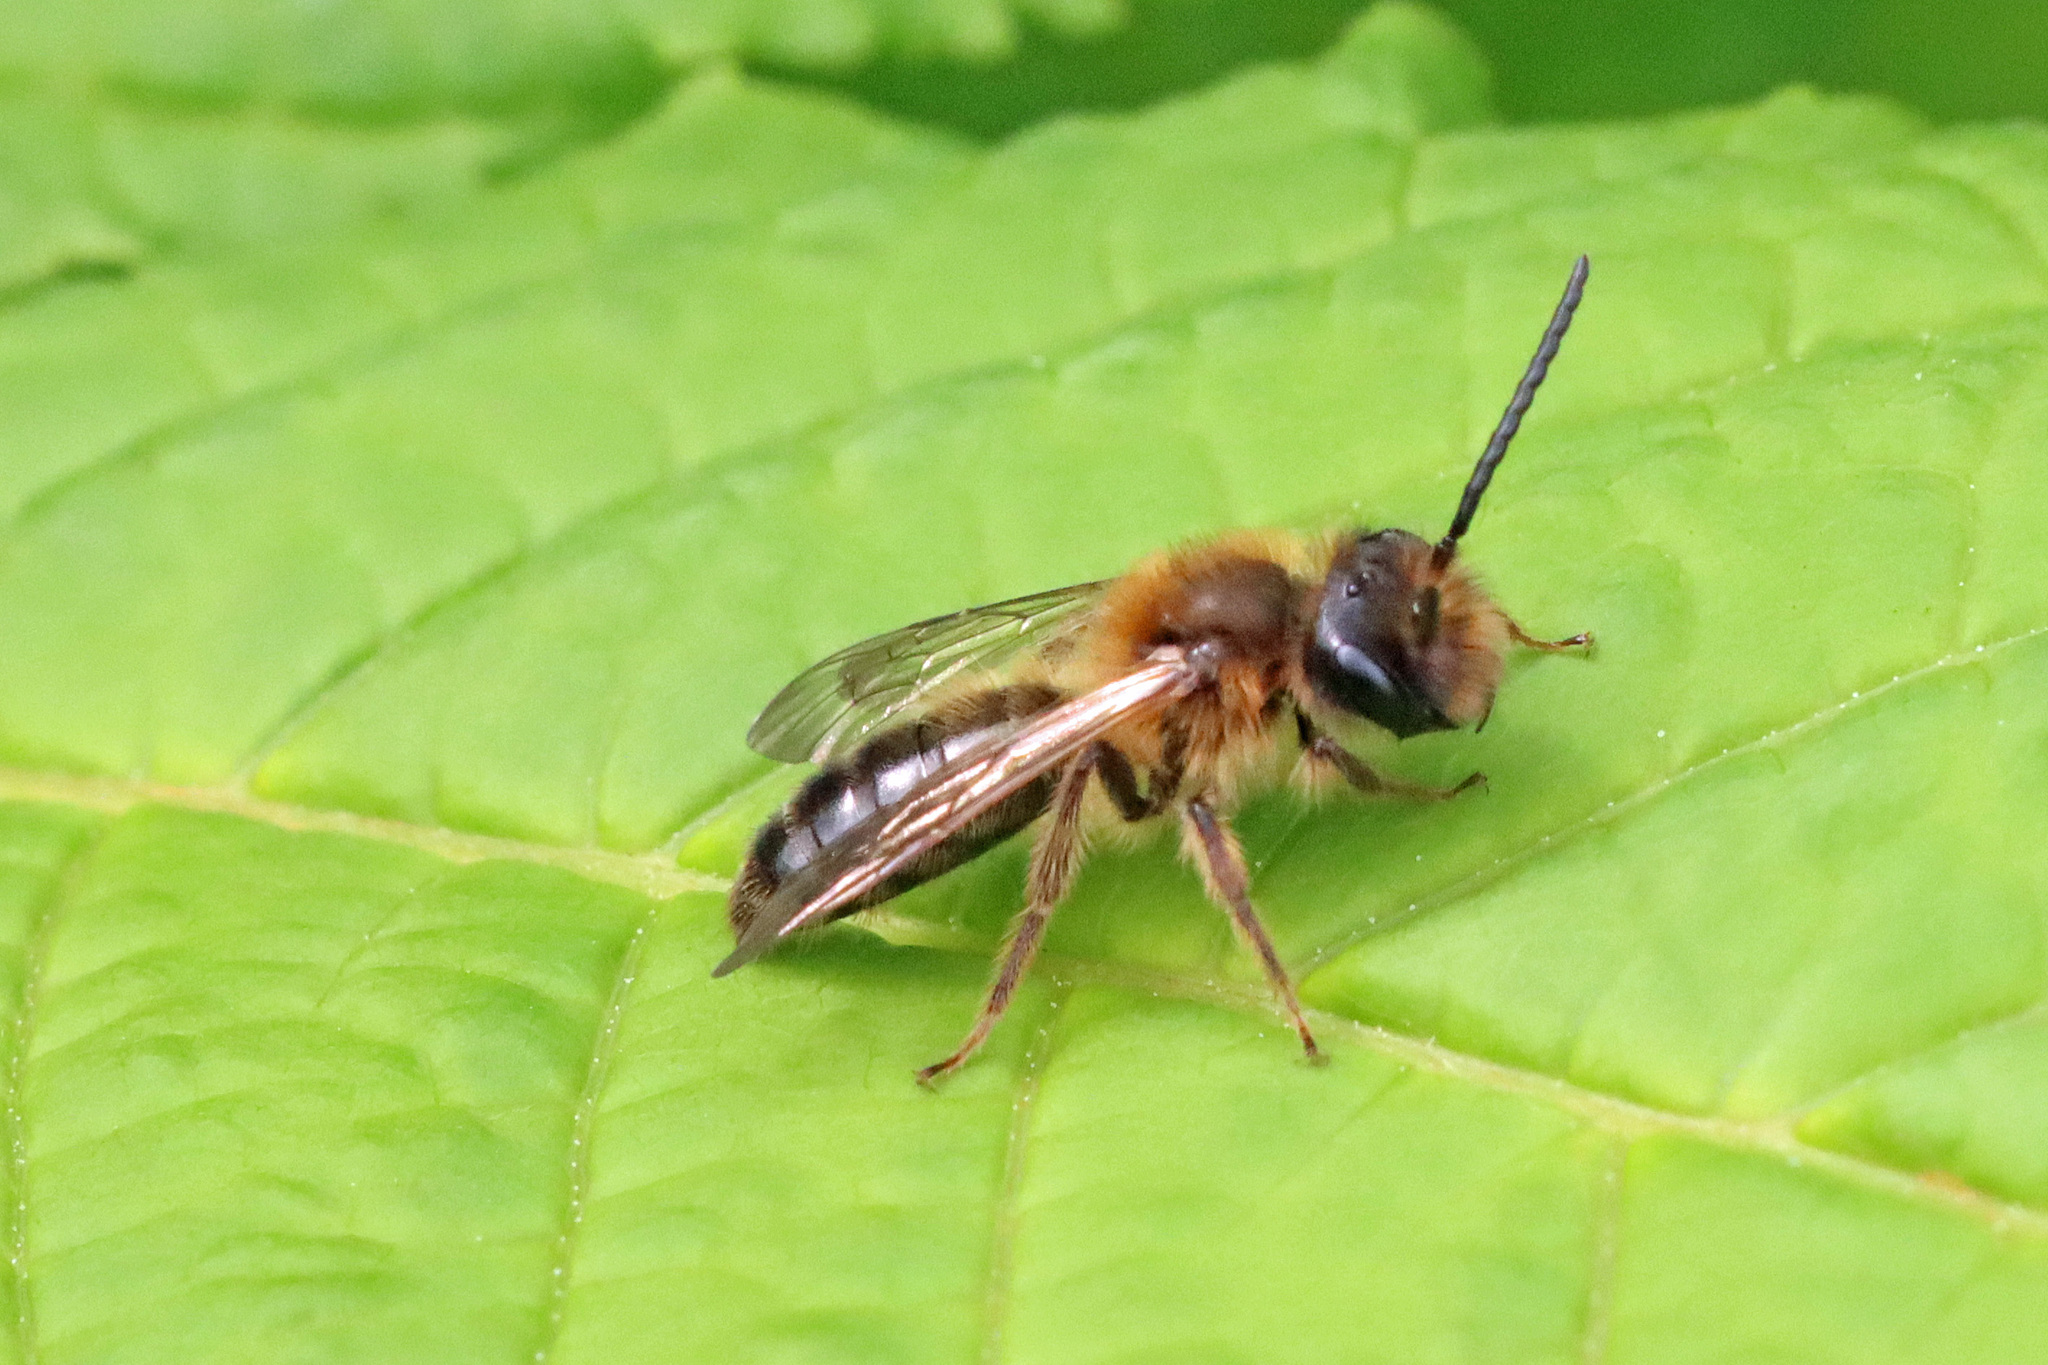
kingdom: Animalia
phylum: Arthropoda
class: Insecta
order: Hymenoptera
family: Andrenidae
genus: Andrena
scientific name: Andrena nigroaenea
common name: Buffish mining bee
